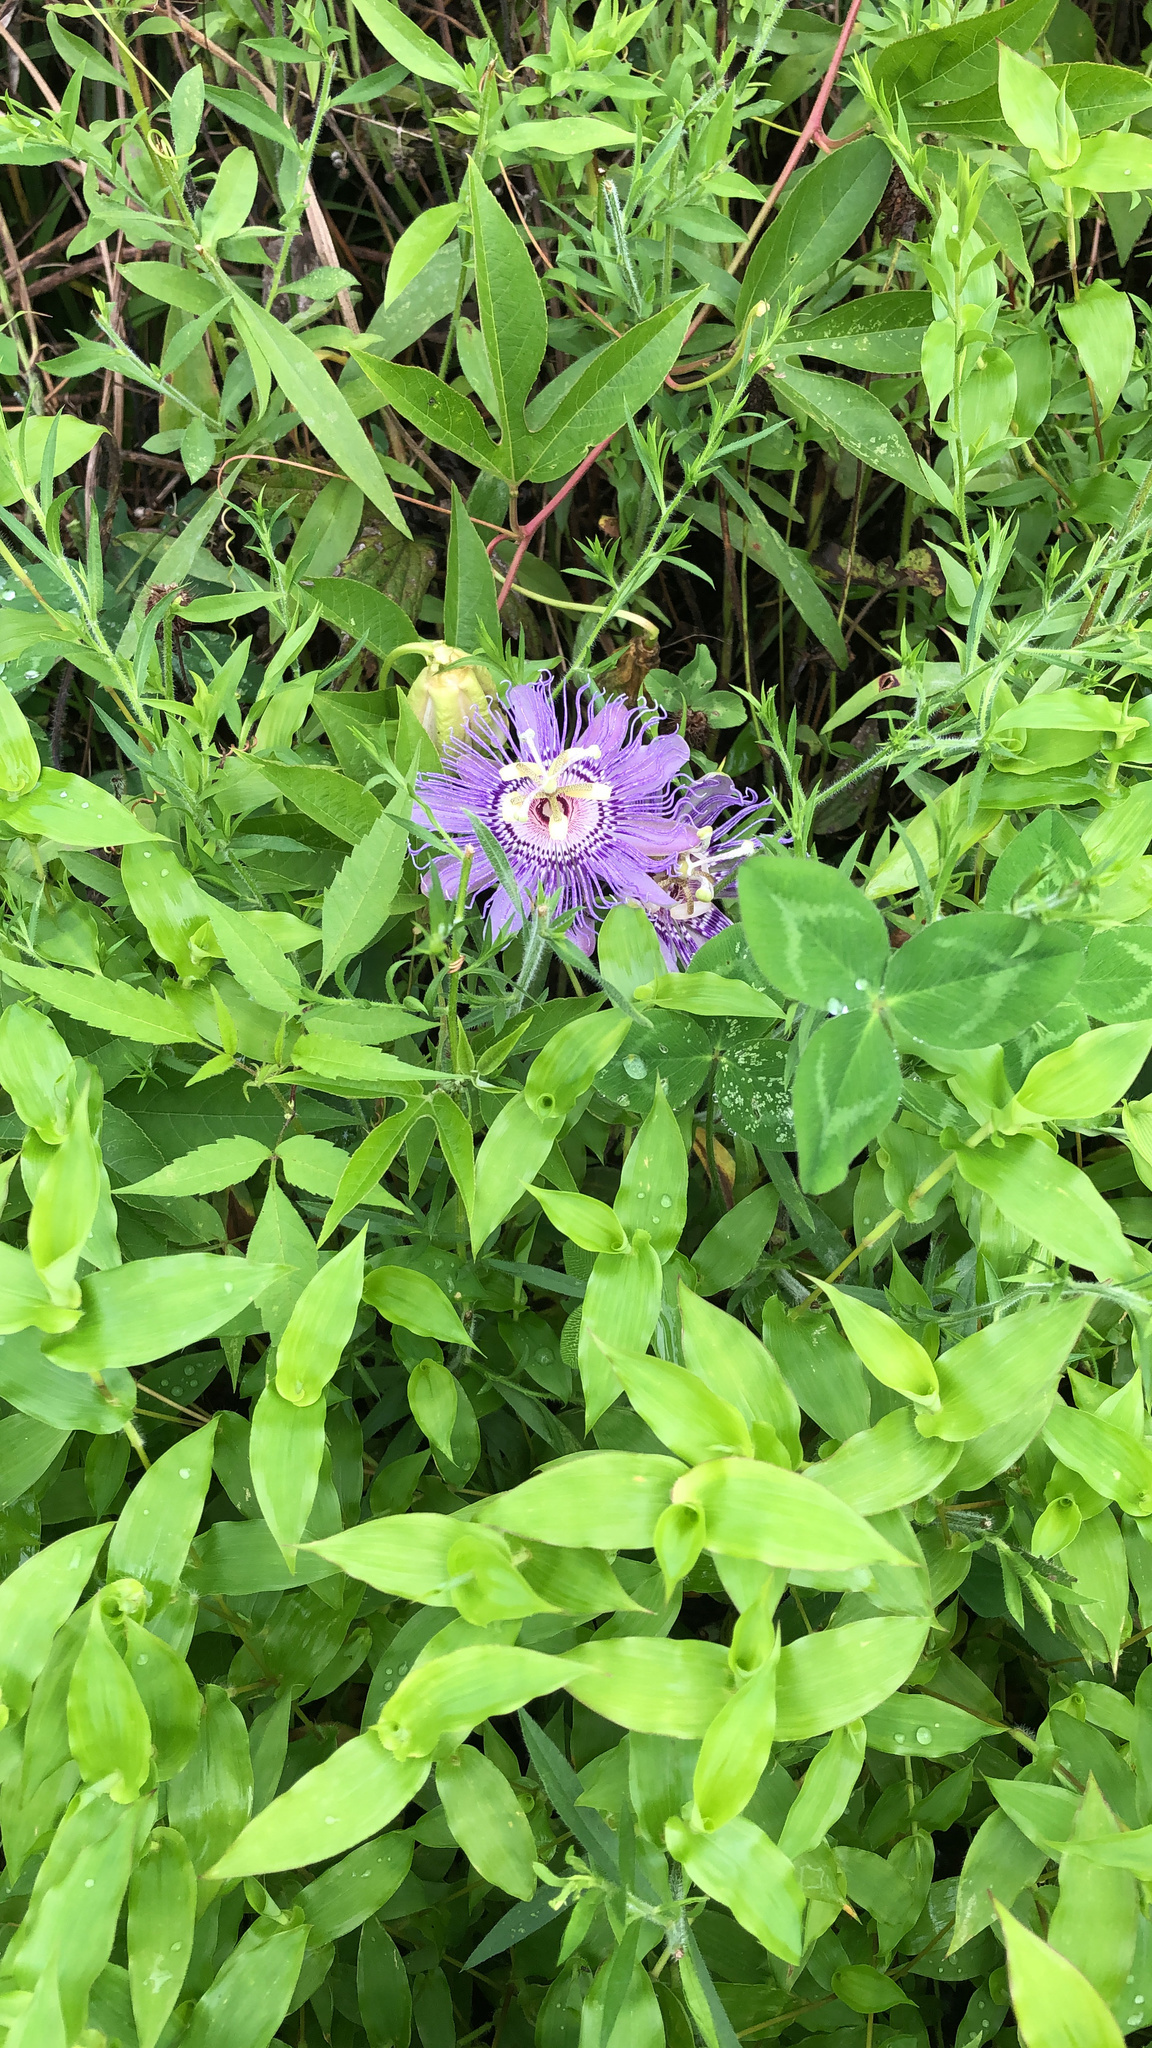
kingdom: Plantae
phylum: Tracheophyta
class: Magnoliopsida
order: Malpighiales
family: Passifloraceae
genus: Passiflora
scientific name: Passiflora incarnata
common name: Apricot-vine
